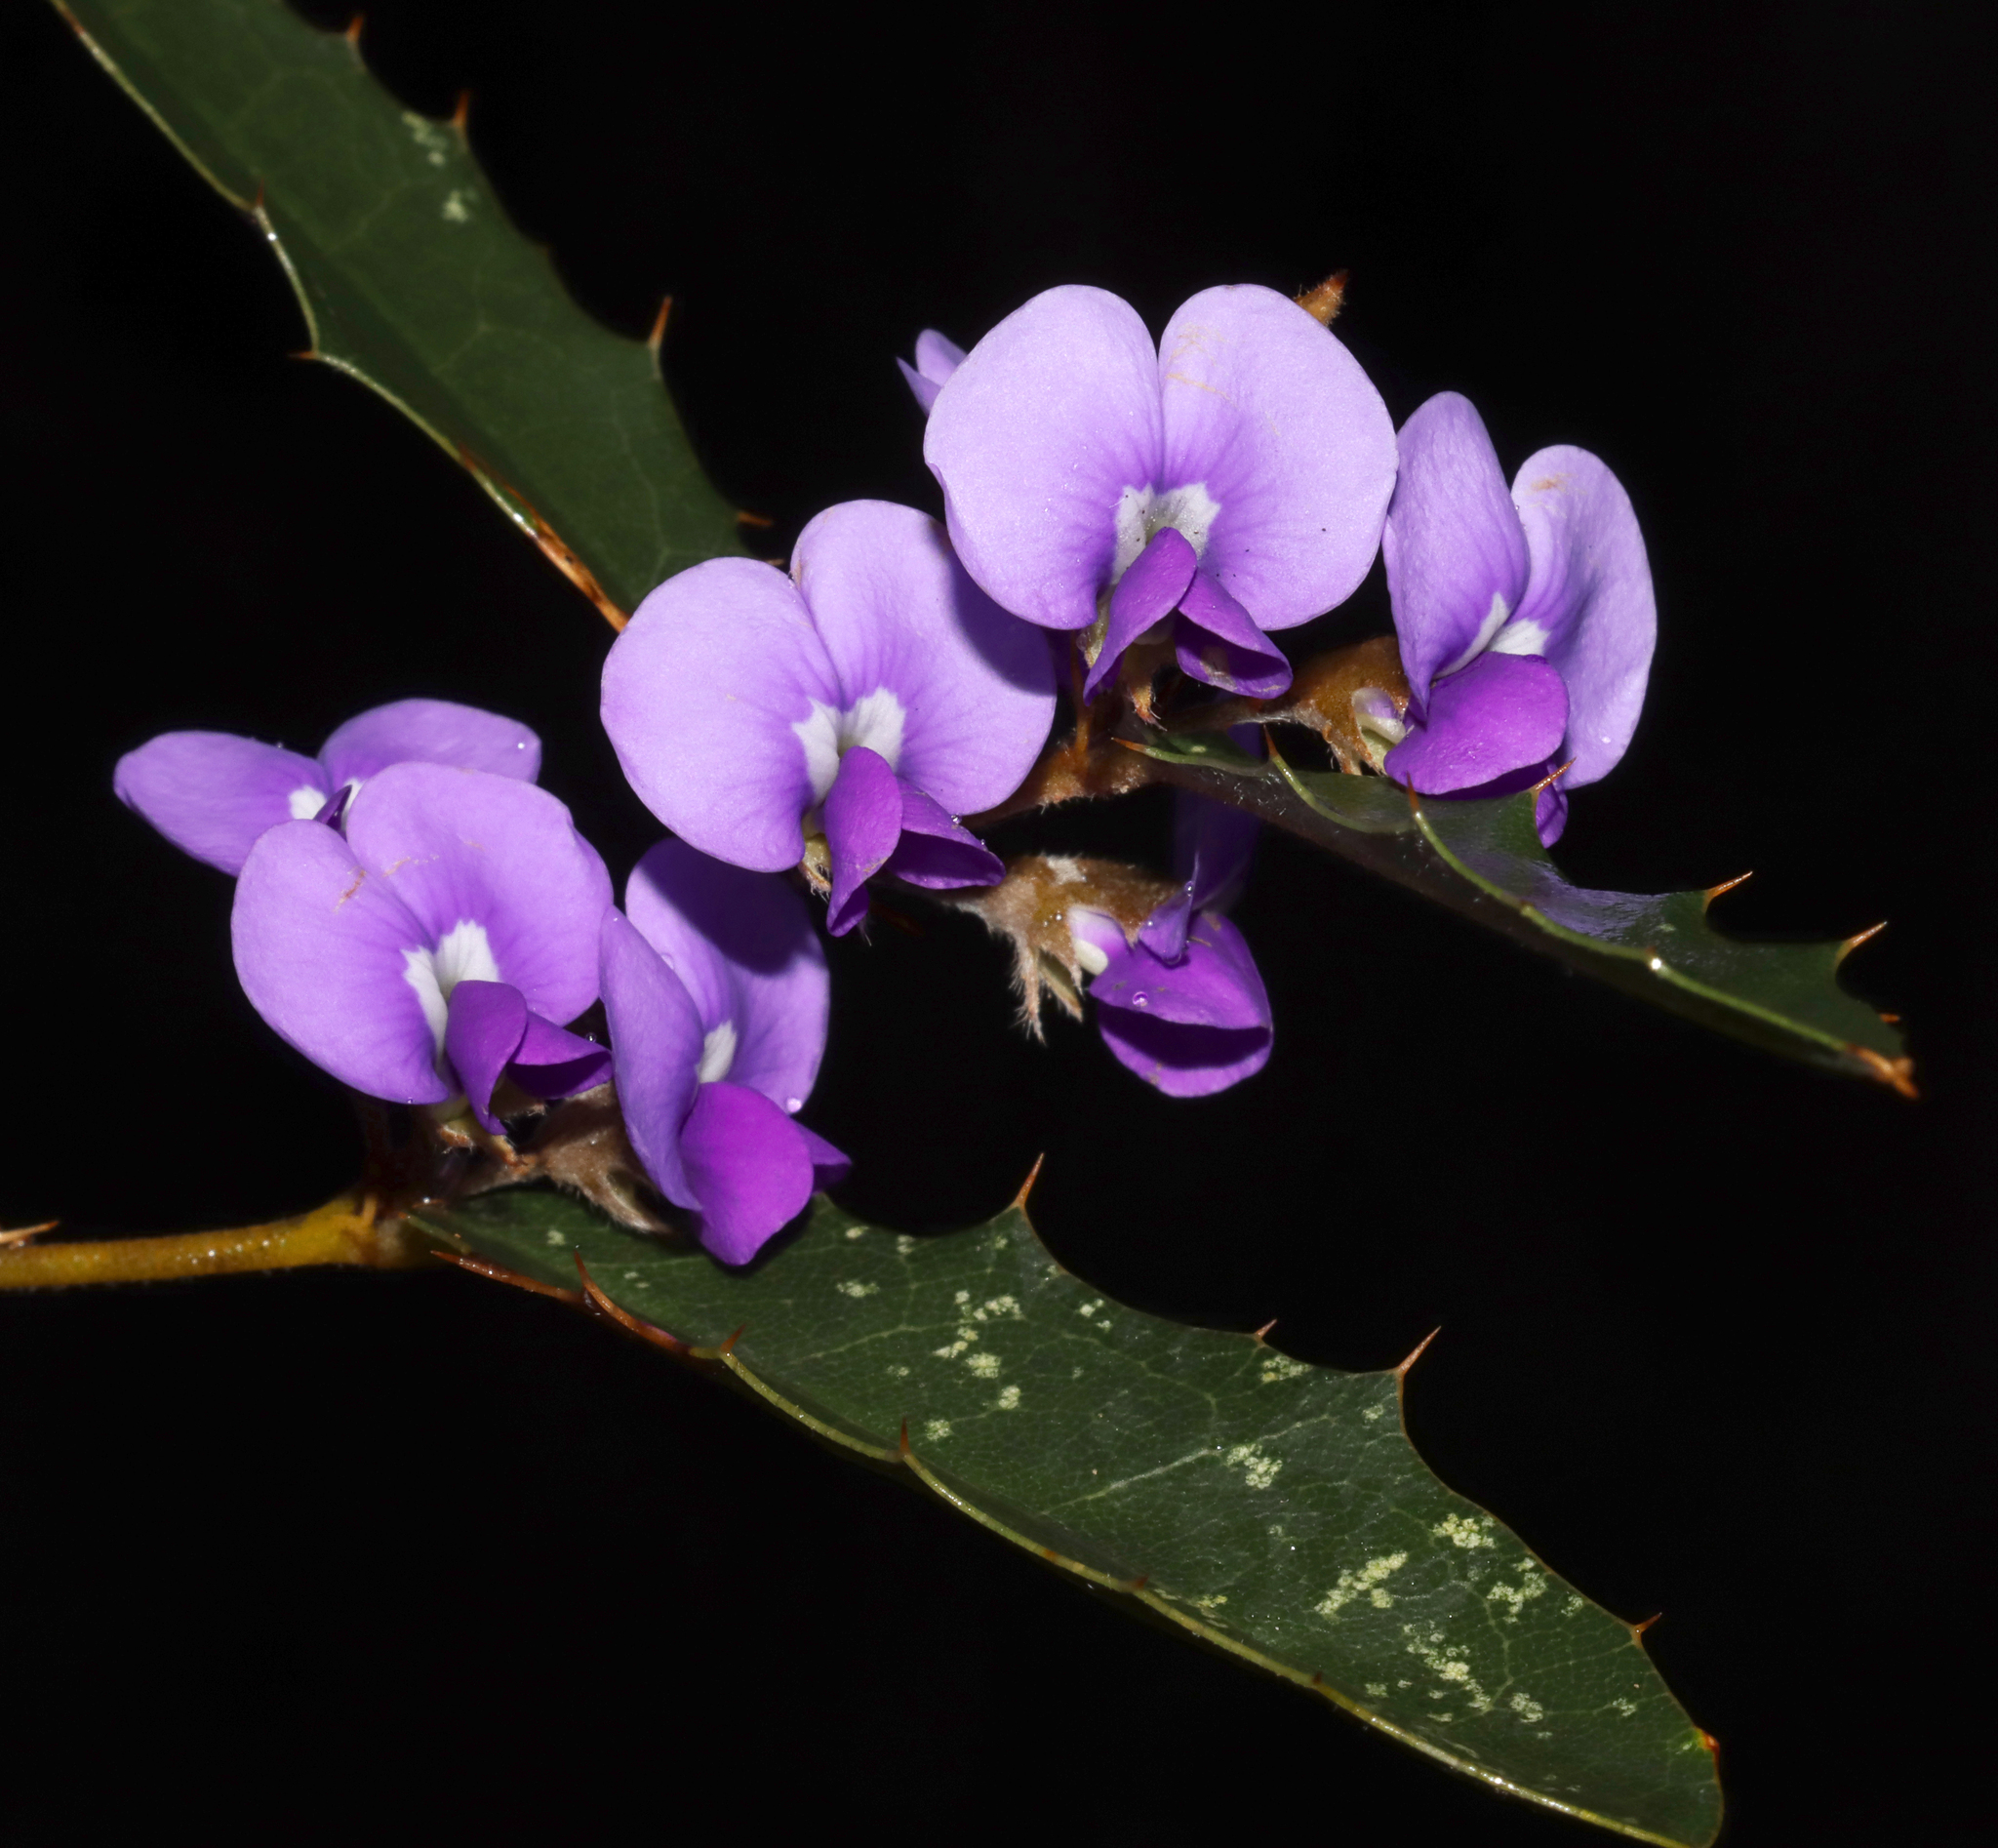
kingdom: Plantae
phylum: Tracheophyta
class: Magnoliopsida
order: Fabales
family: Fabaceae
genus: Hovea
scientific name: Hovea chorizemifolia
